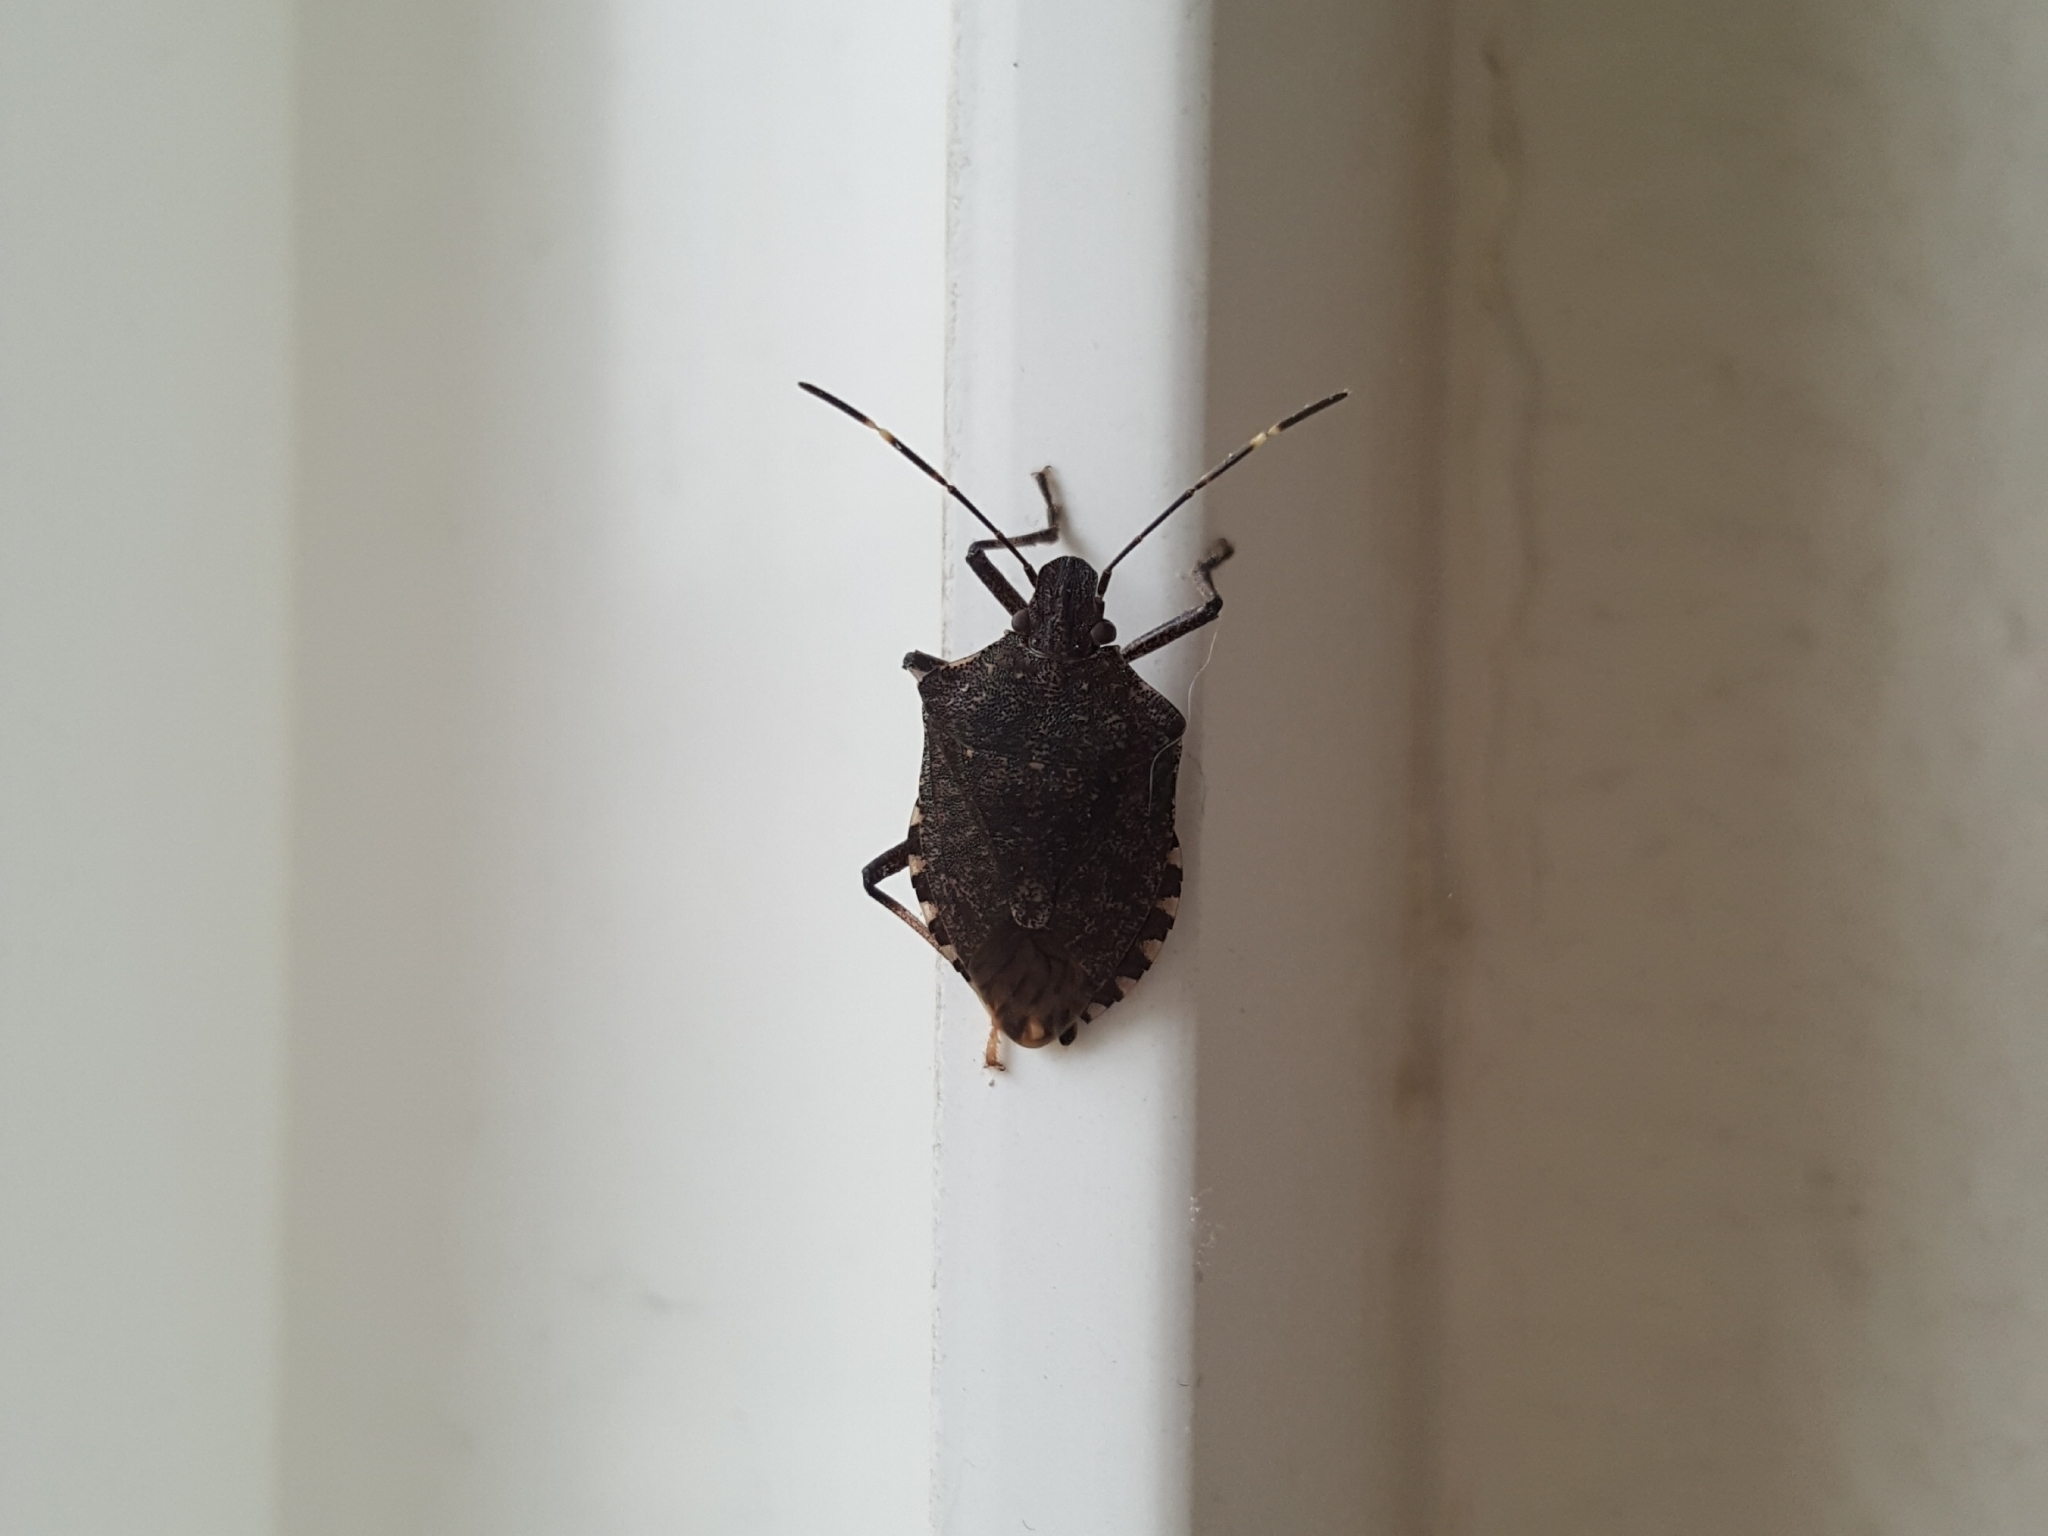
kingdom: Animalia
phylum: Arthropoda
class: Insecta
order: Hemiptera
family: Pentatomidae
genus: Halyomorpha
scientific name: Halyomorpha halys
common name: Brown marmorated stink bug
